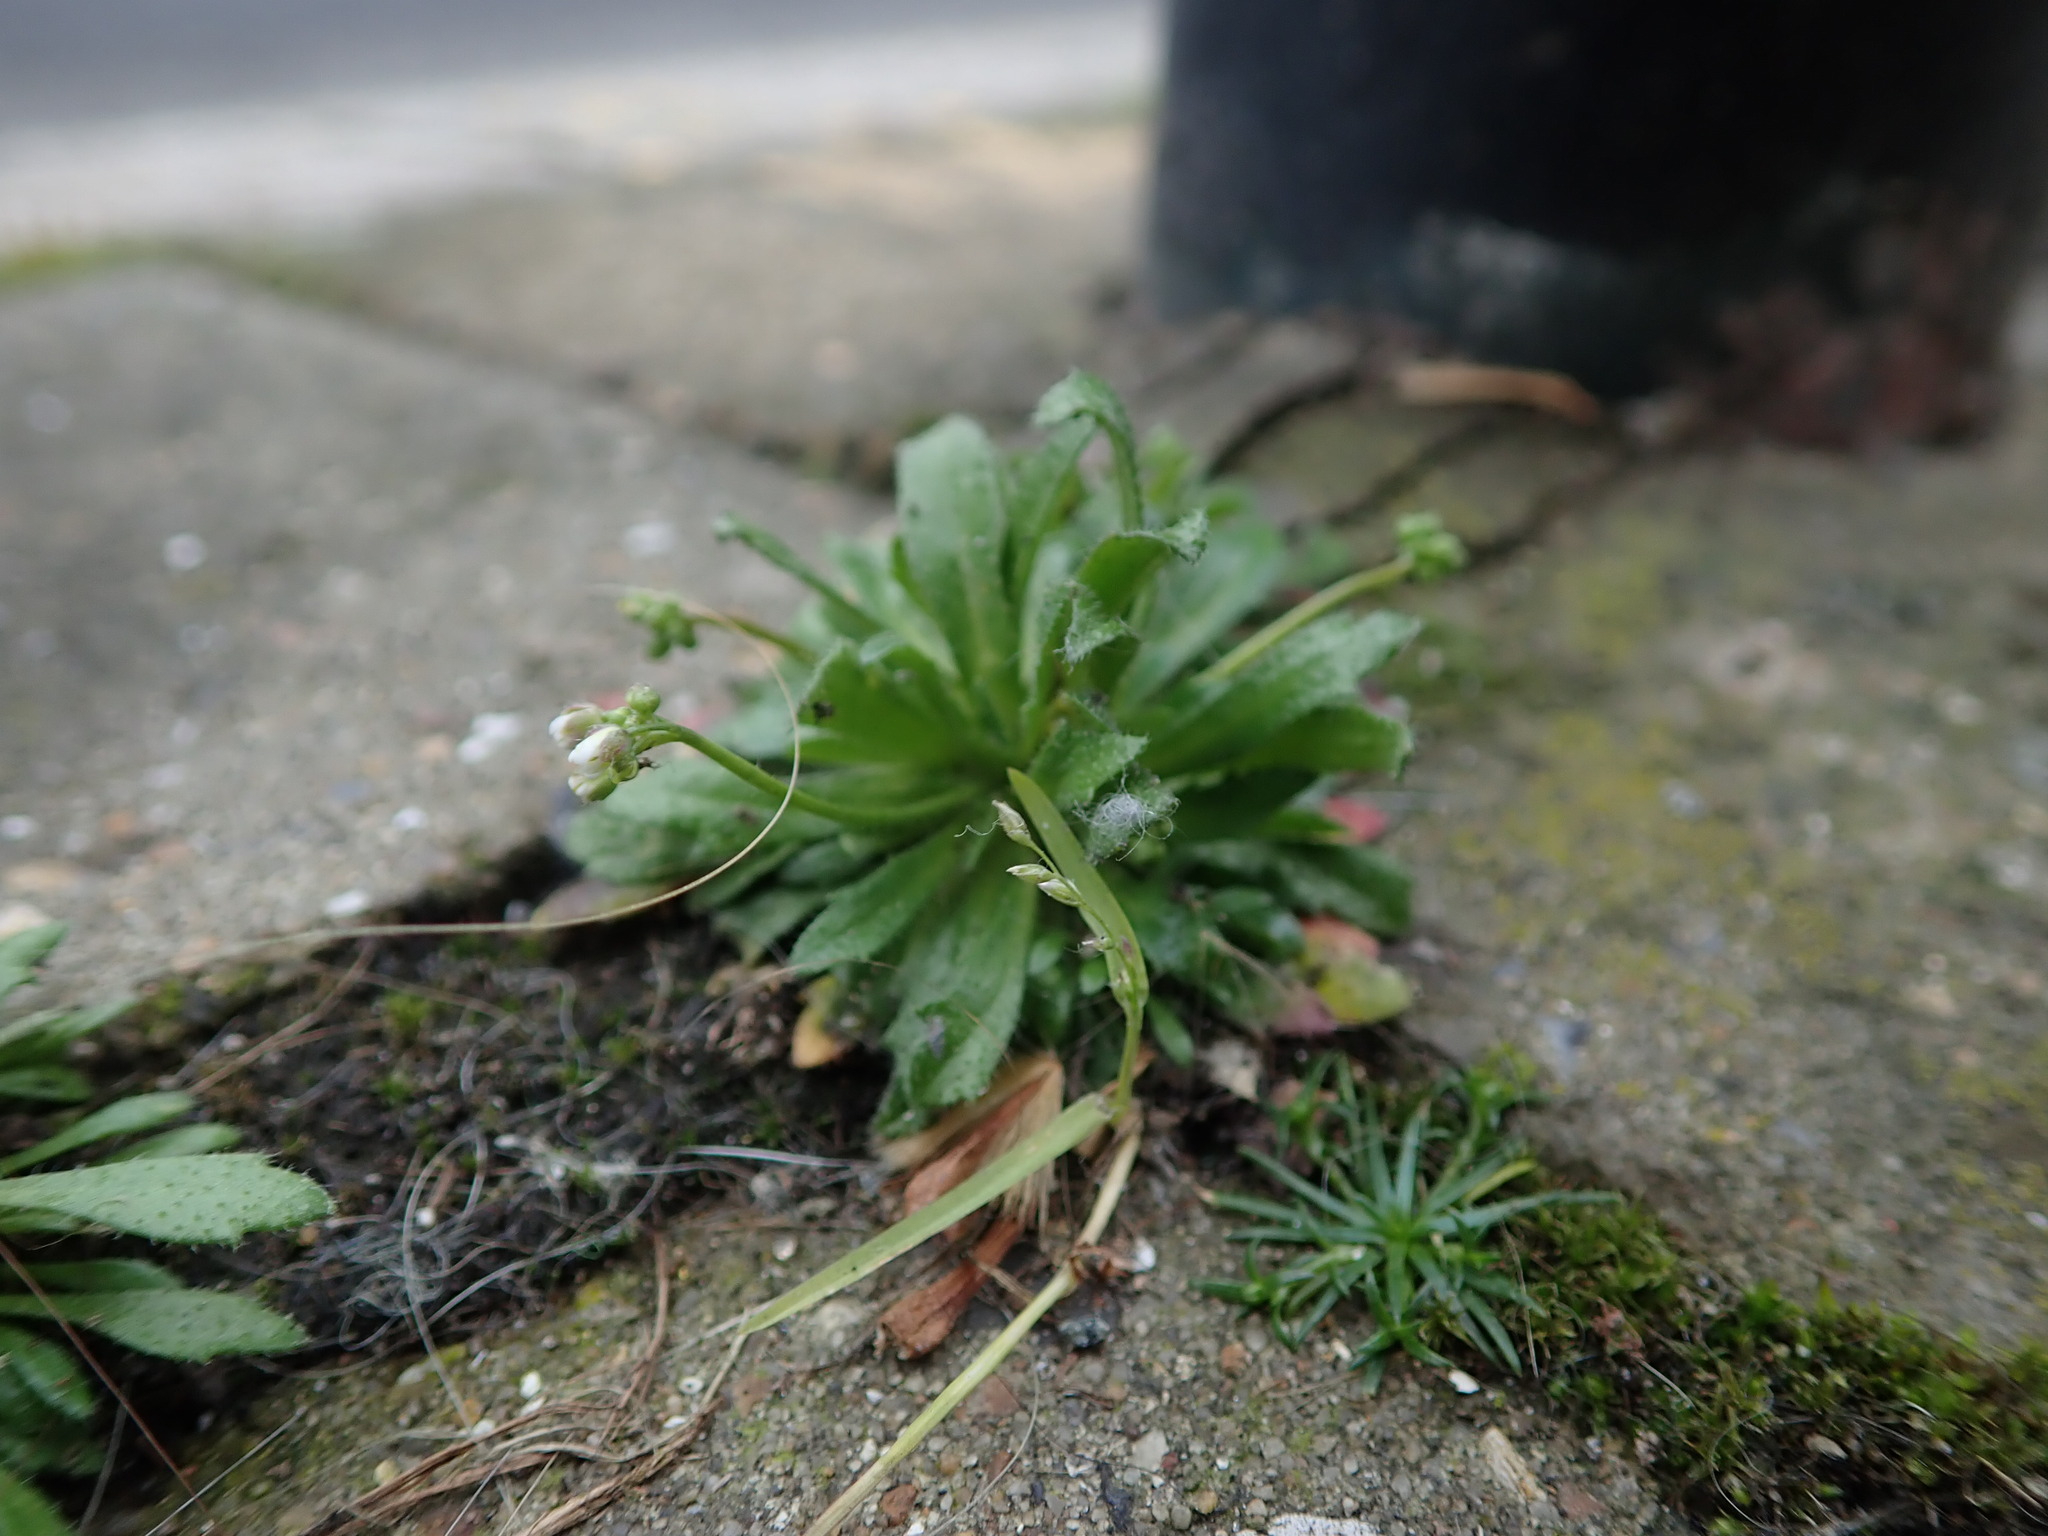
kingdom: Plantae
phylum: Tracheophyta
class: Magnoliopsida
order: Brassicales
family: Brassicaceae
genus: Draba
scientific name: Draba verna
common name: Spring draba
